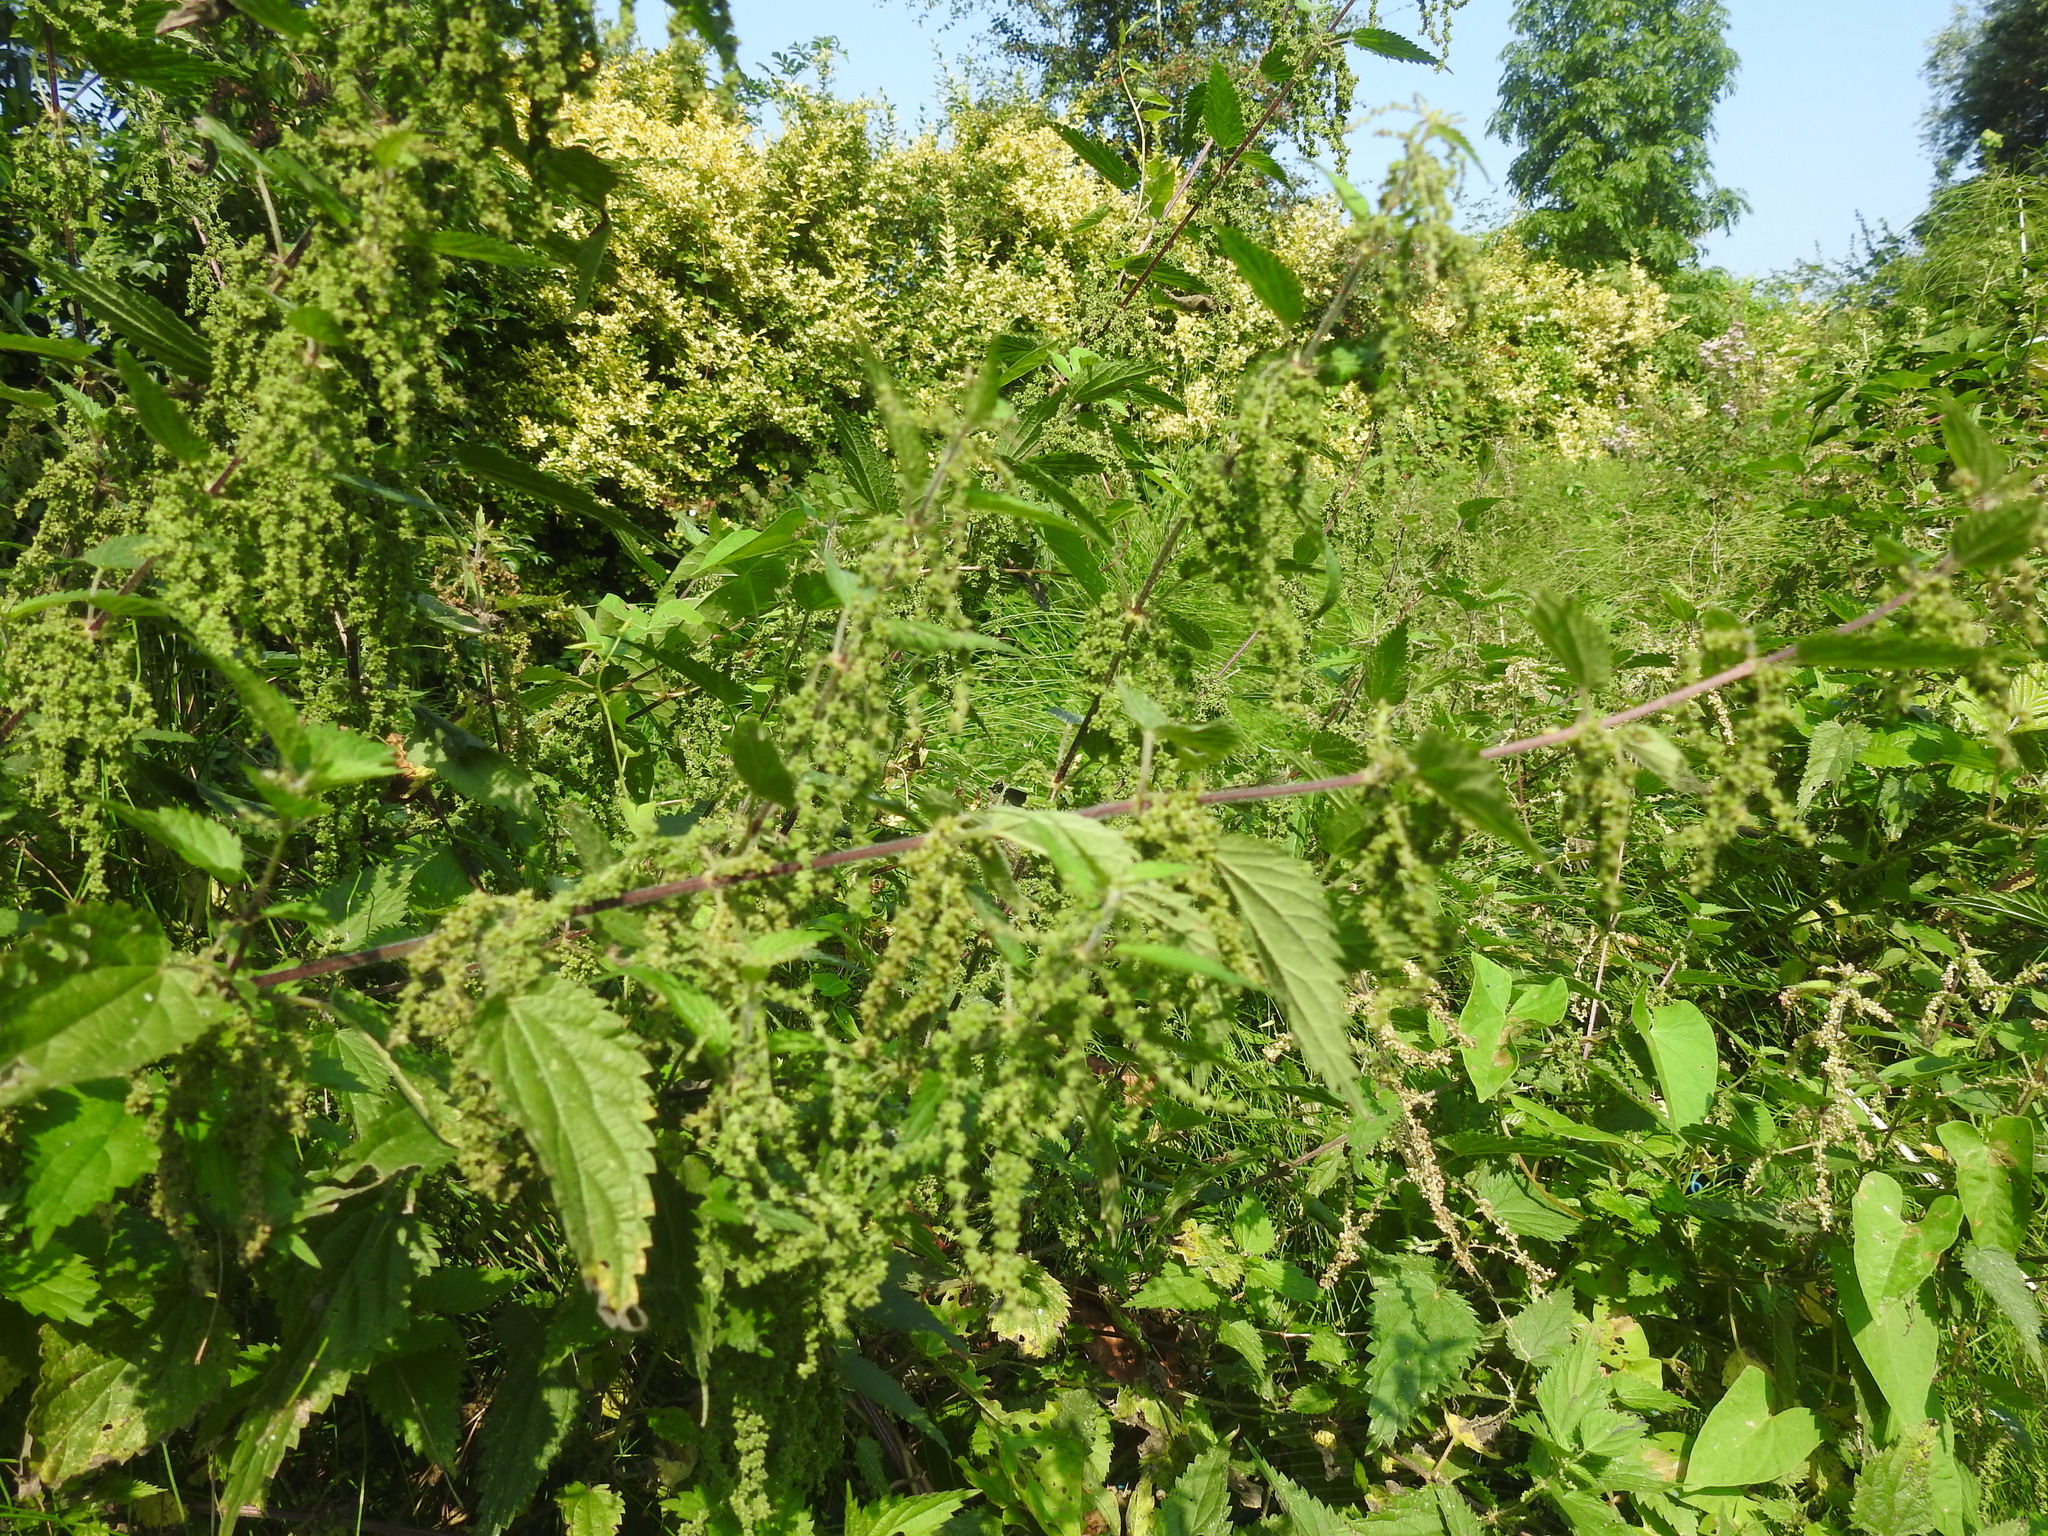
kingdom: Plantae
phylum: Tracheophyta
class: Magnoliopsida
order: Rosales
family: Urticaceae
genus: Urtica
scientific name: Urtica dioica
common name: Common nettle
